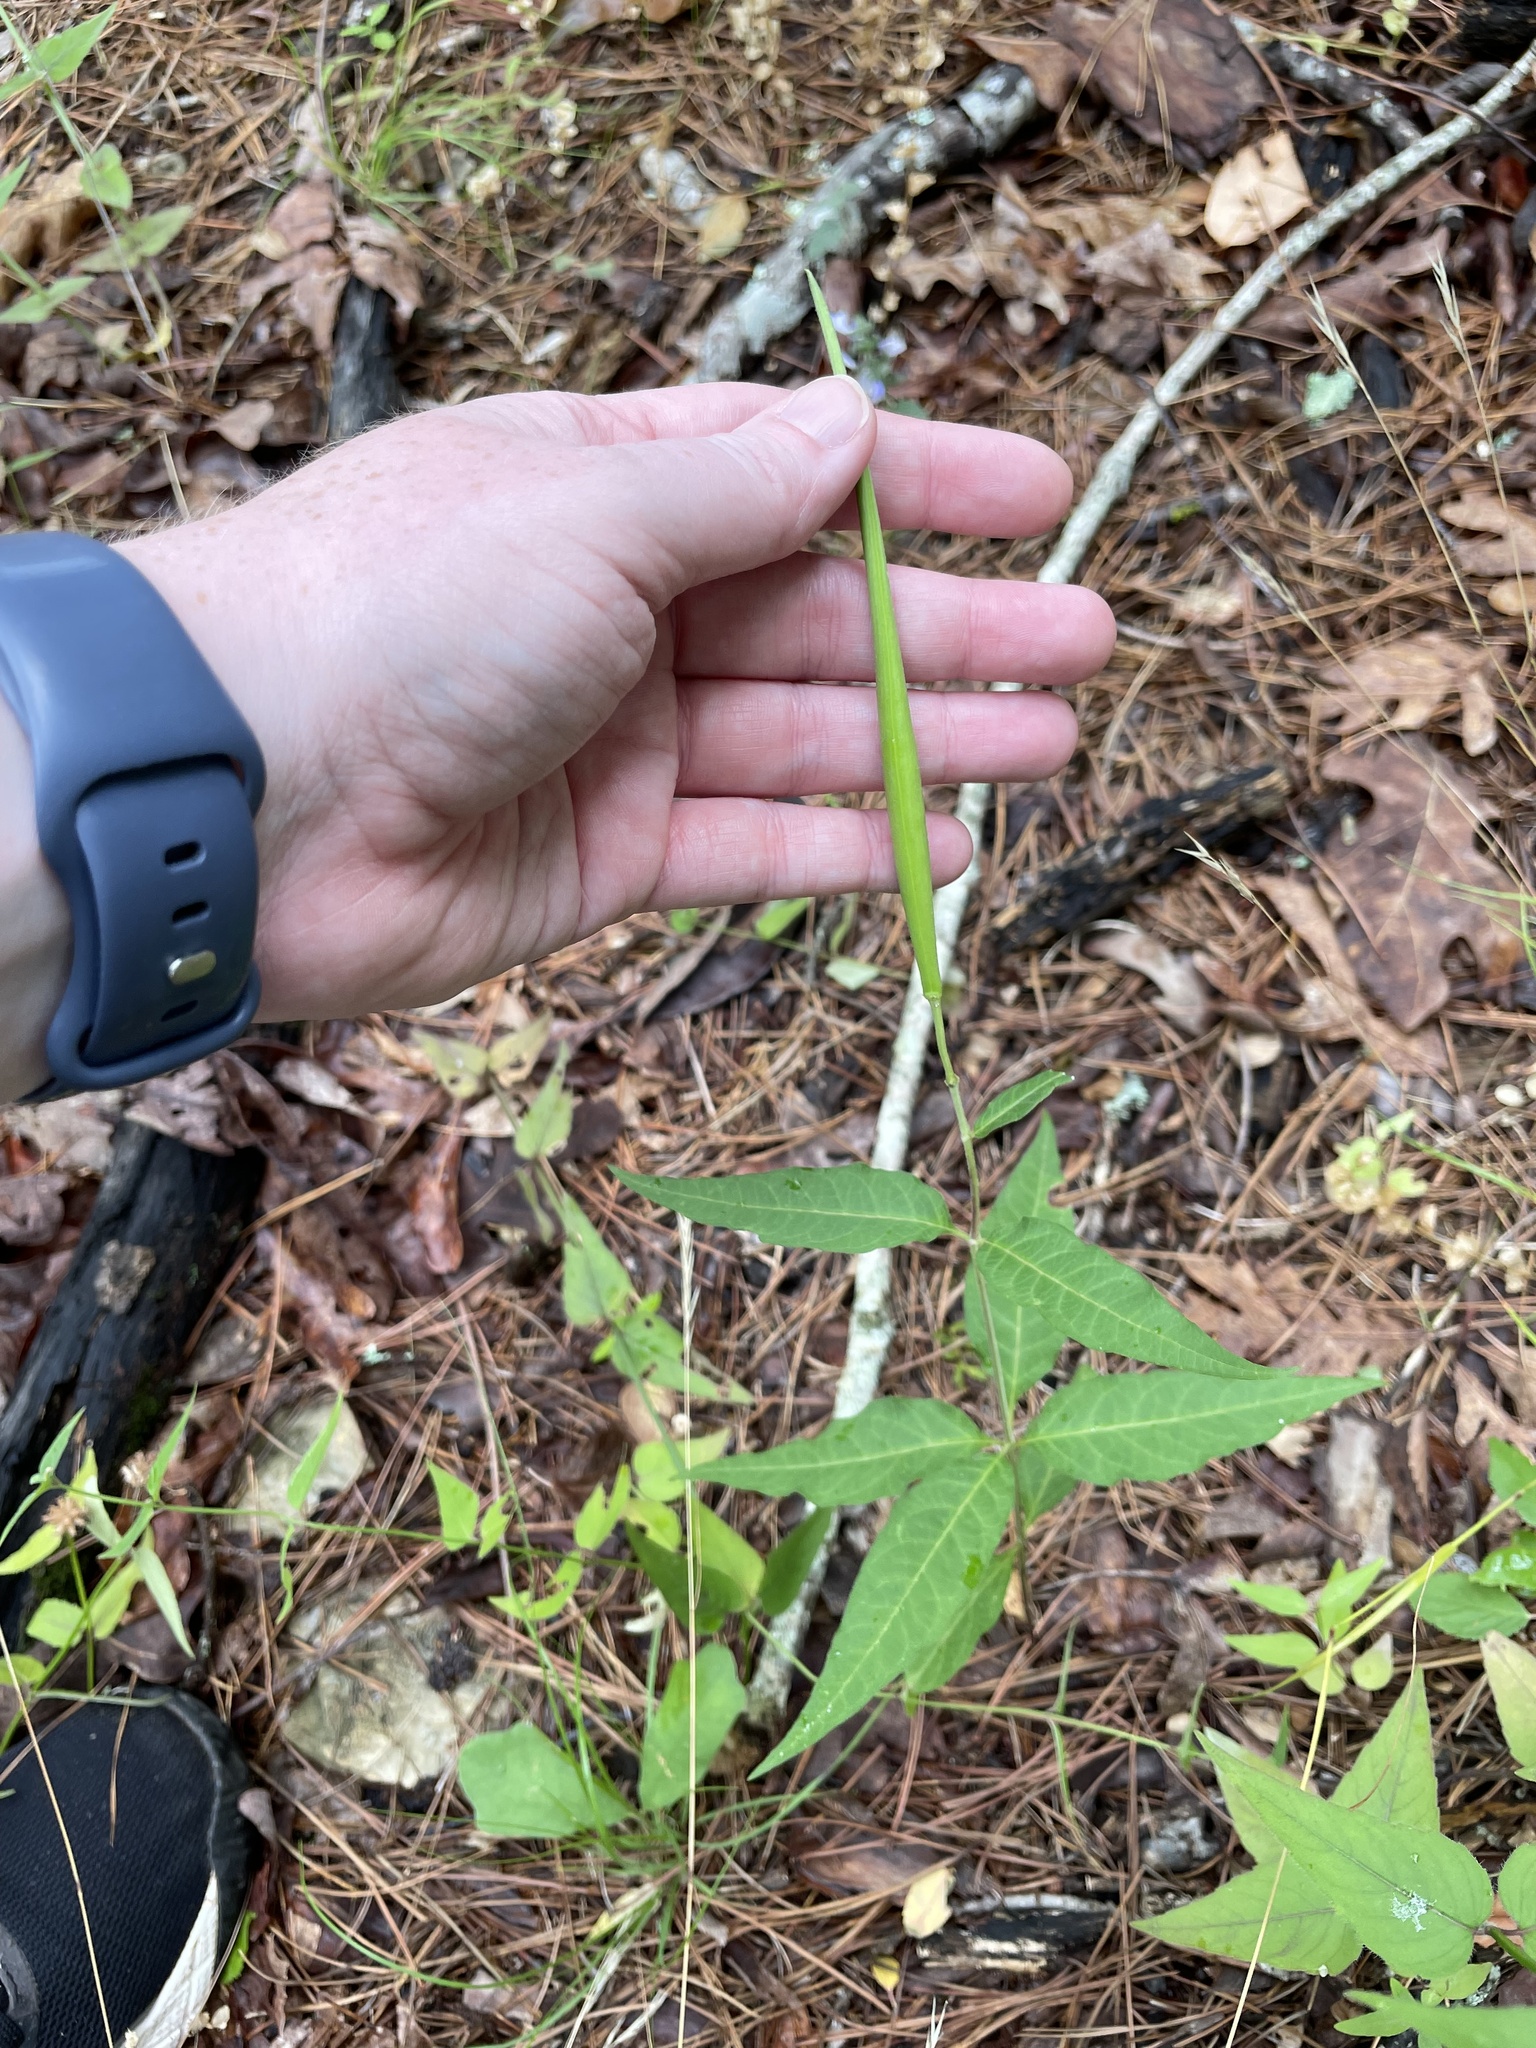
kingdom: Plantae
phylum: Tracheophyta
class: Magnoliopsida
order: Gentianales
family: Apocynaceae
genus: Asclepias
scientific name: Asclepias quadrifolia
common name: Whorled milkweed
